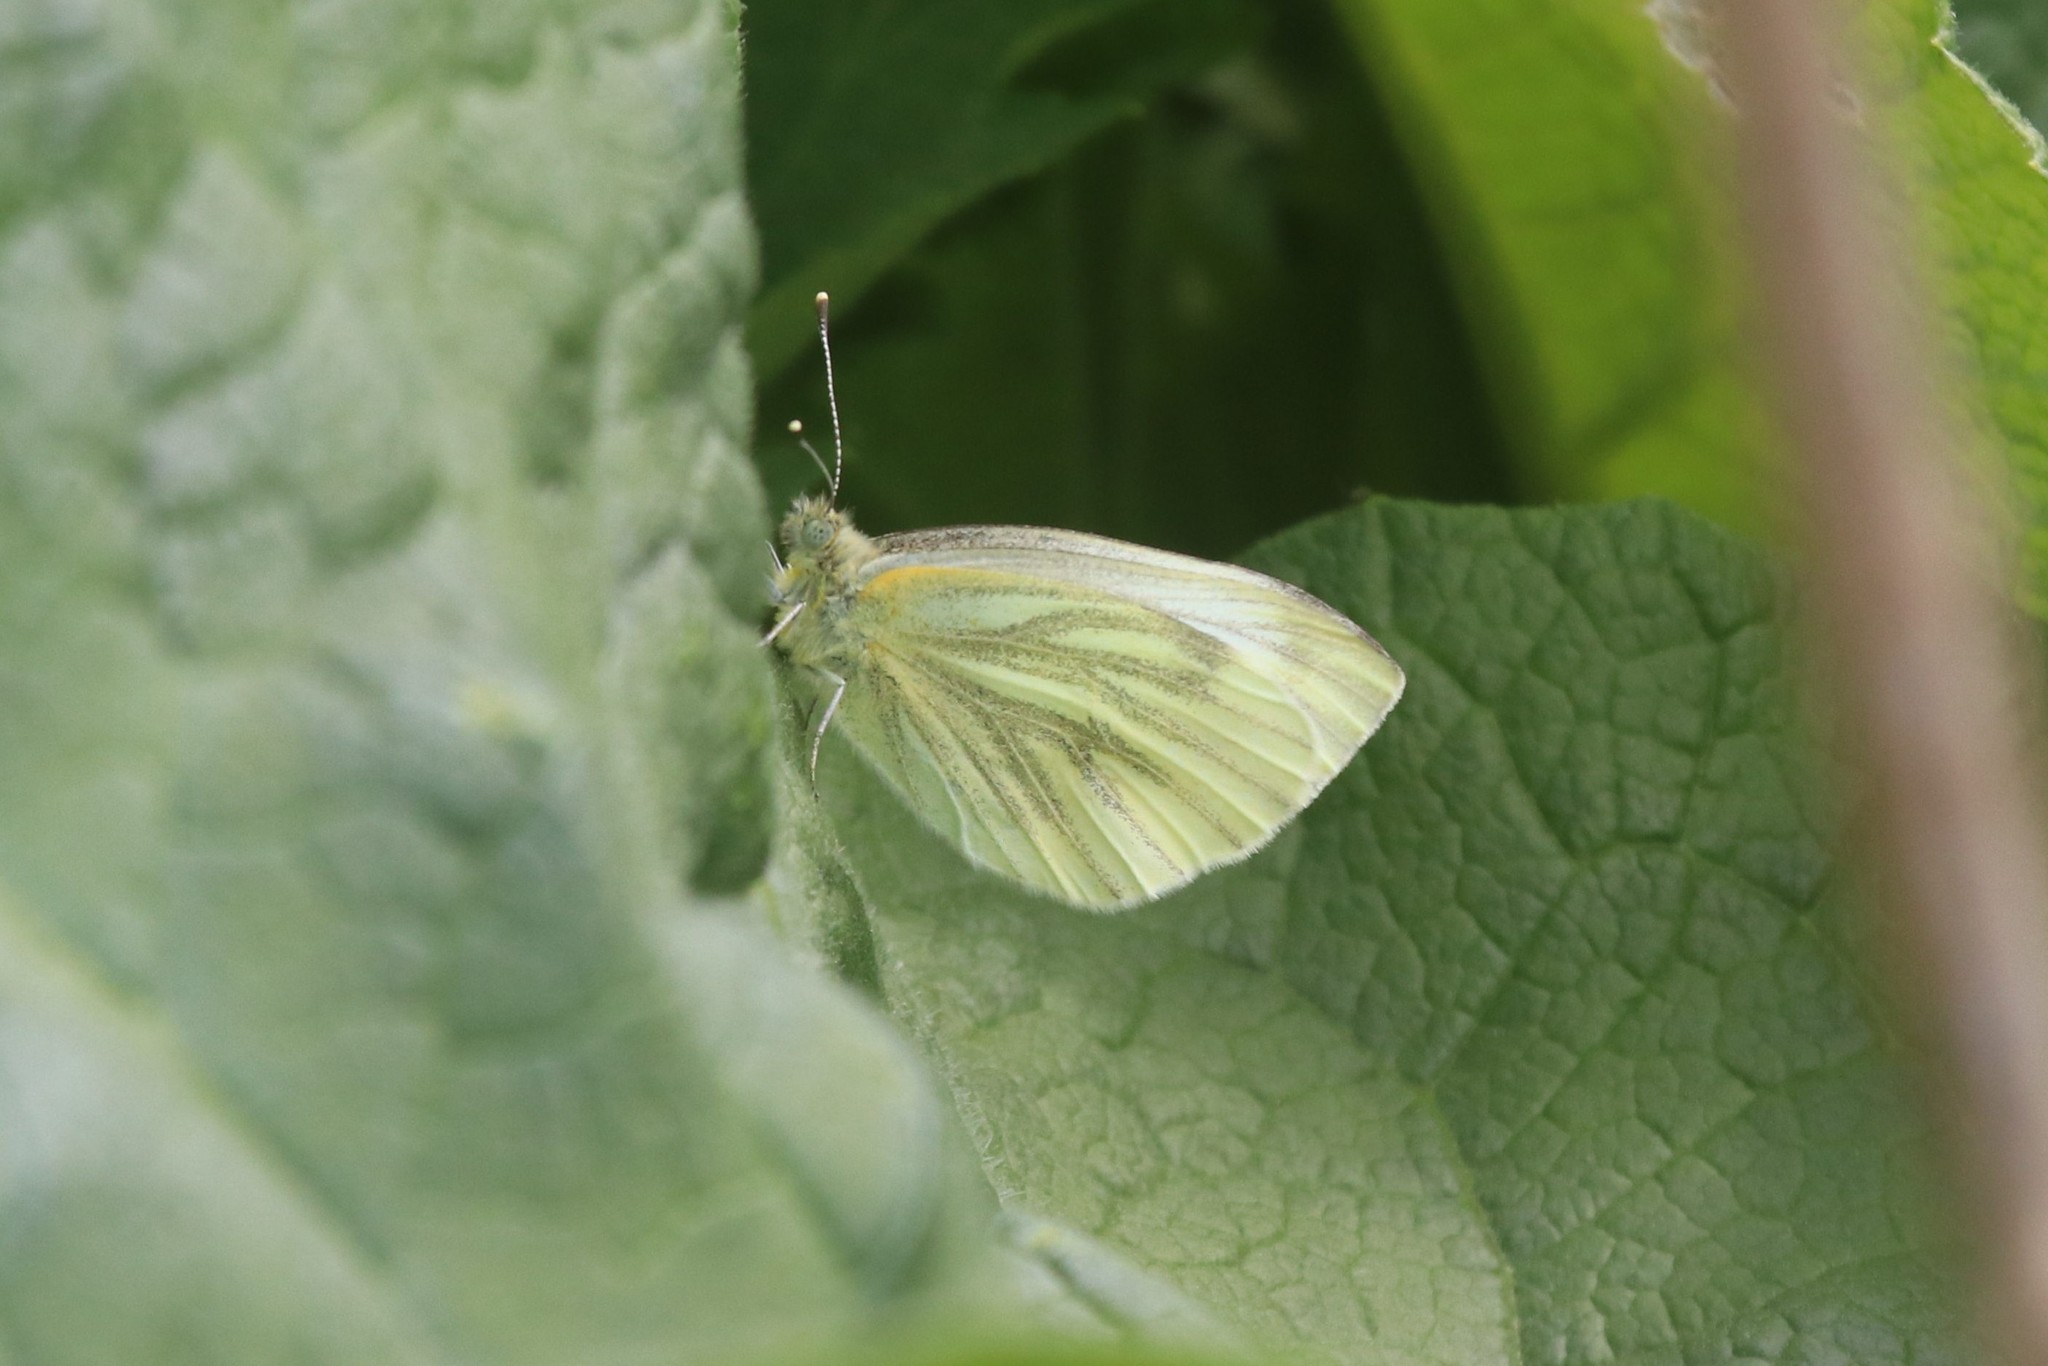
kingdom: Animalia
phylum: Arthropoda
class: Insecta
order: Lepidoptera
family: Pieridae
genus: Pieris
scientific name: Pieris napi
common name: Green-veined white
